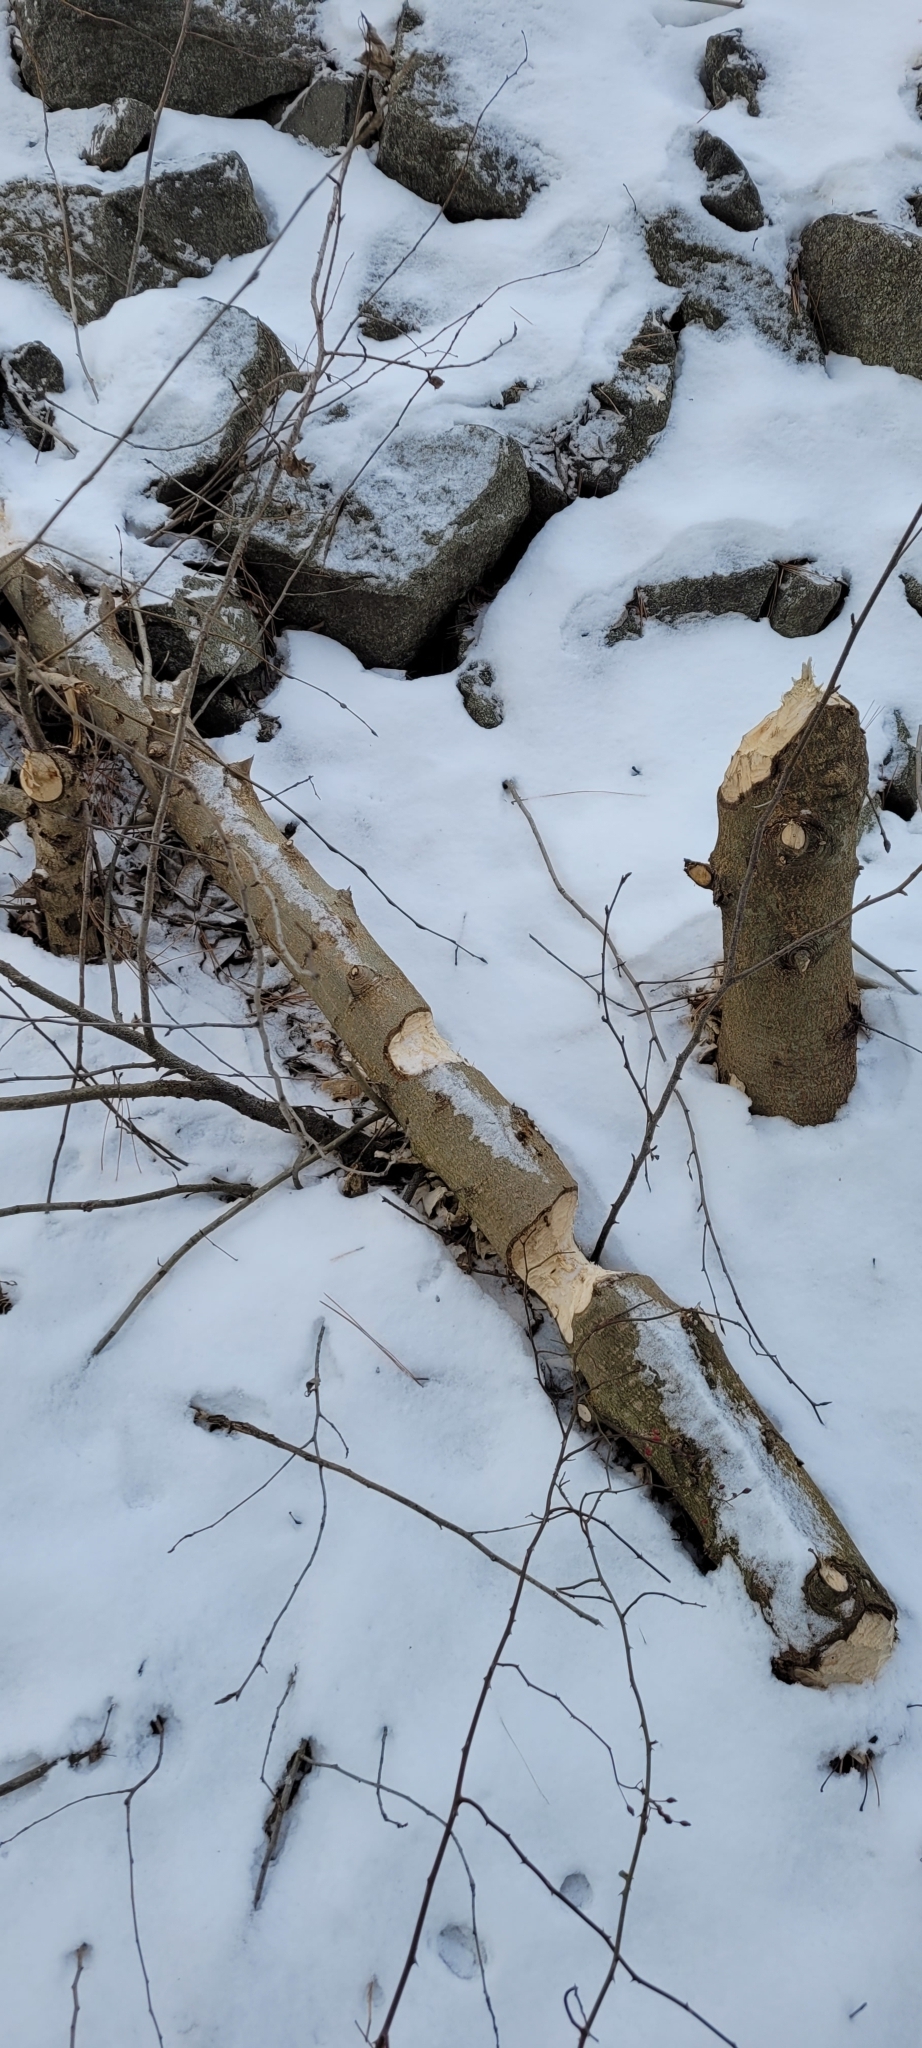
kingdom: Animalia
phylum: Chordata
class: Mammalia
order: Rodentia
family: Castoridae
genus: Castor
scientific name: Castor canadensis
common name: American beaver
